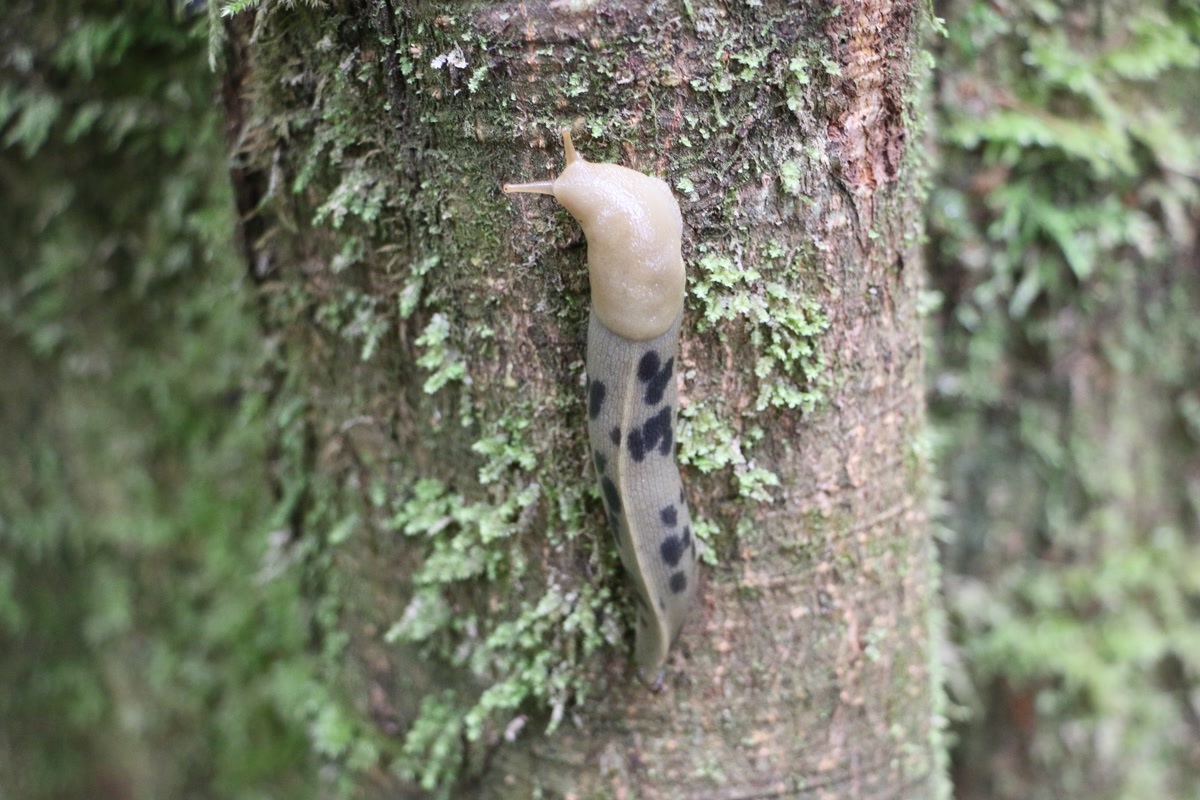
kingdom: Animalia
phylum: Mollusca
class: Gastropoda
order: Stylommatophora
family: Ariolimacidae
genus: Ariolimax
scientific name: Ariolimax columbianus
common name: Pacific banana slug
